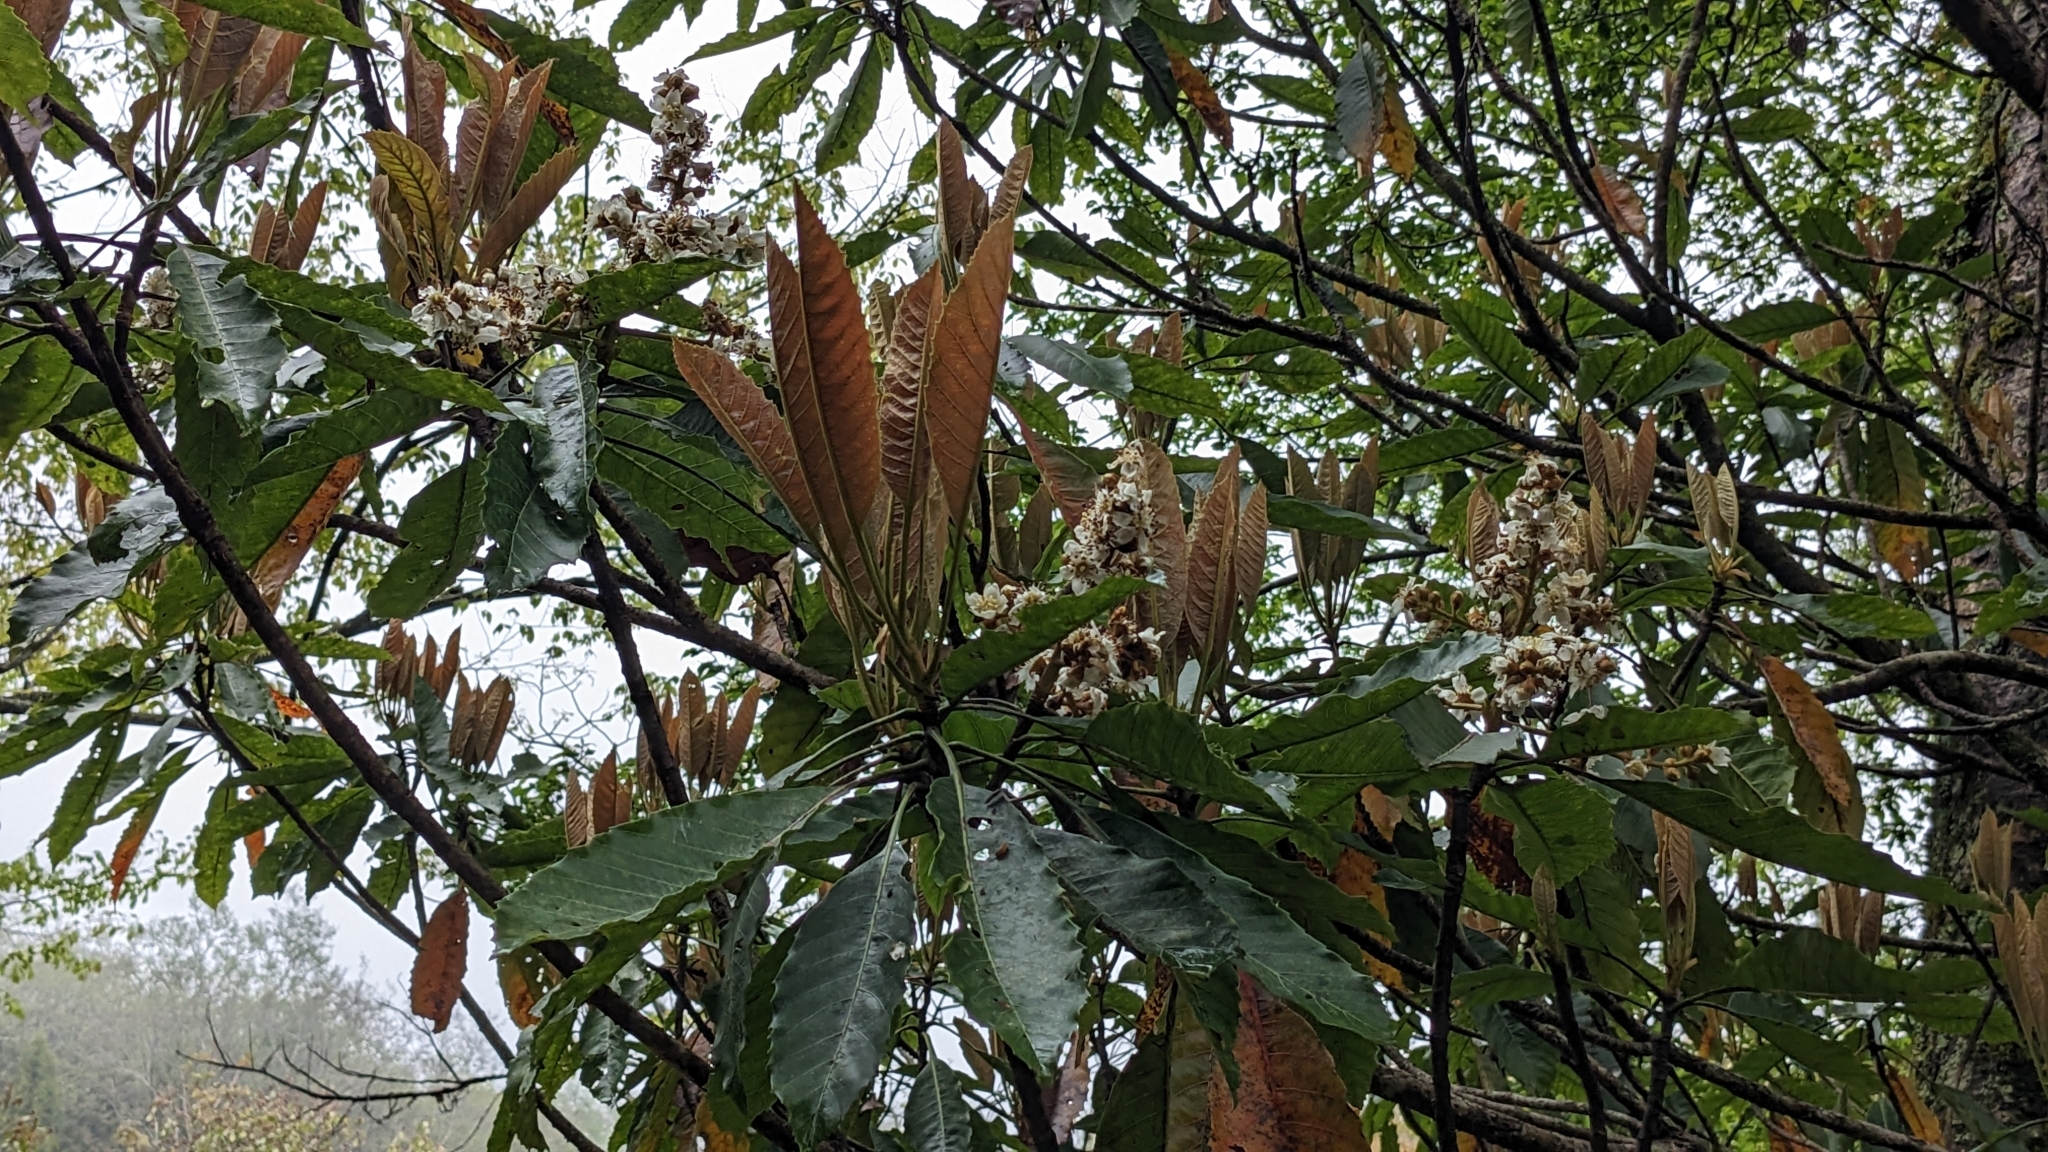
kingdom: Plantae
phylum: Tracheophyta
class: Magnoliopsida
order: Rosales
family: Rosaceae
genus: Rhaphiolepis
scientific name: Rhaphiolepis deflexa
